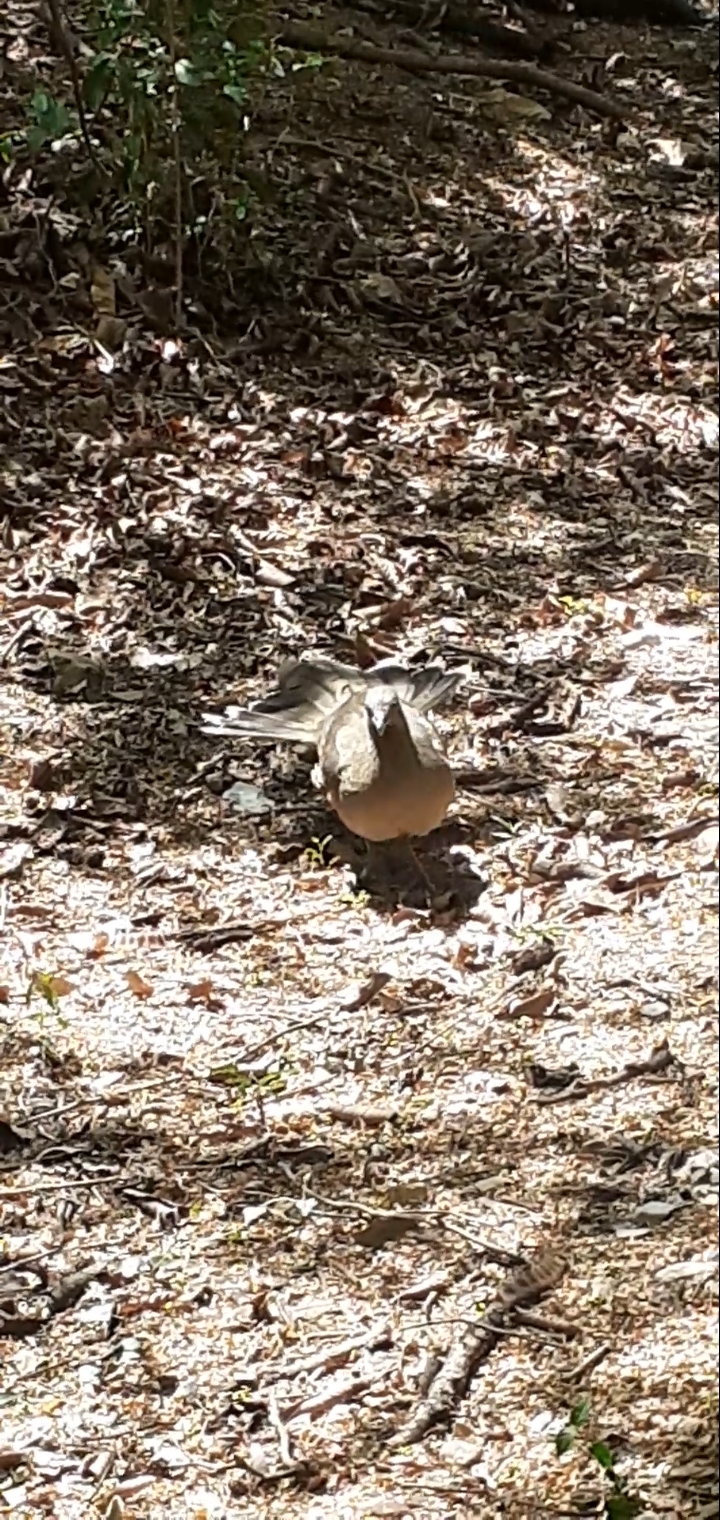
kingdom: Animalia
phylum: Chordata
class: Aves
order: Galliformes
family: Cracidae
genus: Ortalis
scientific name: Ortalis vetula
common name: Plain chachalaca
